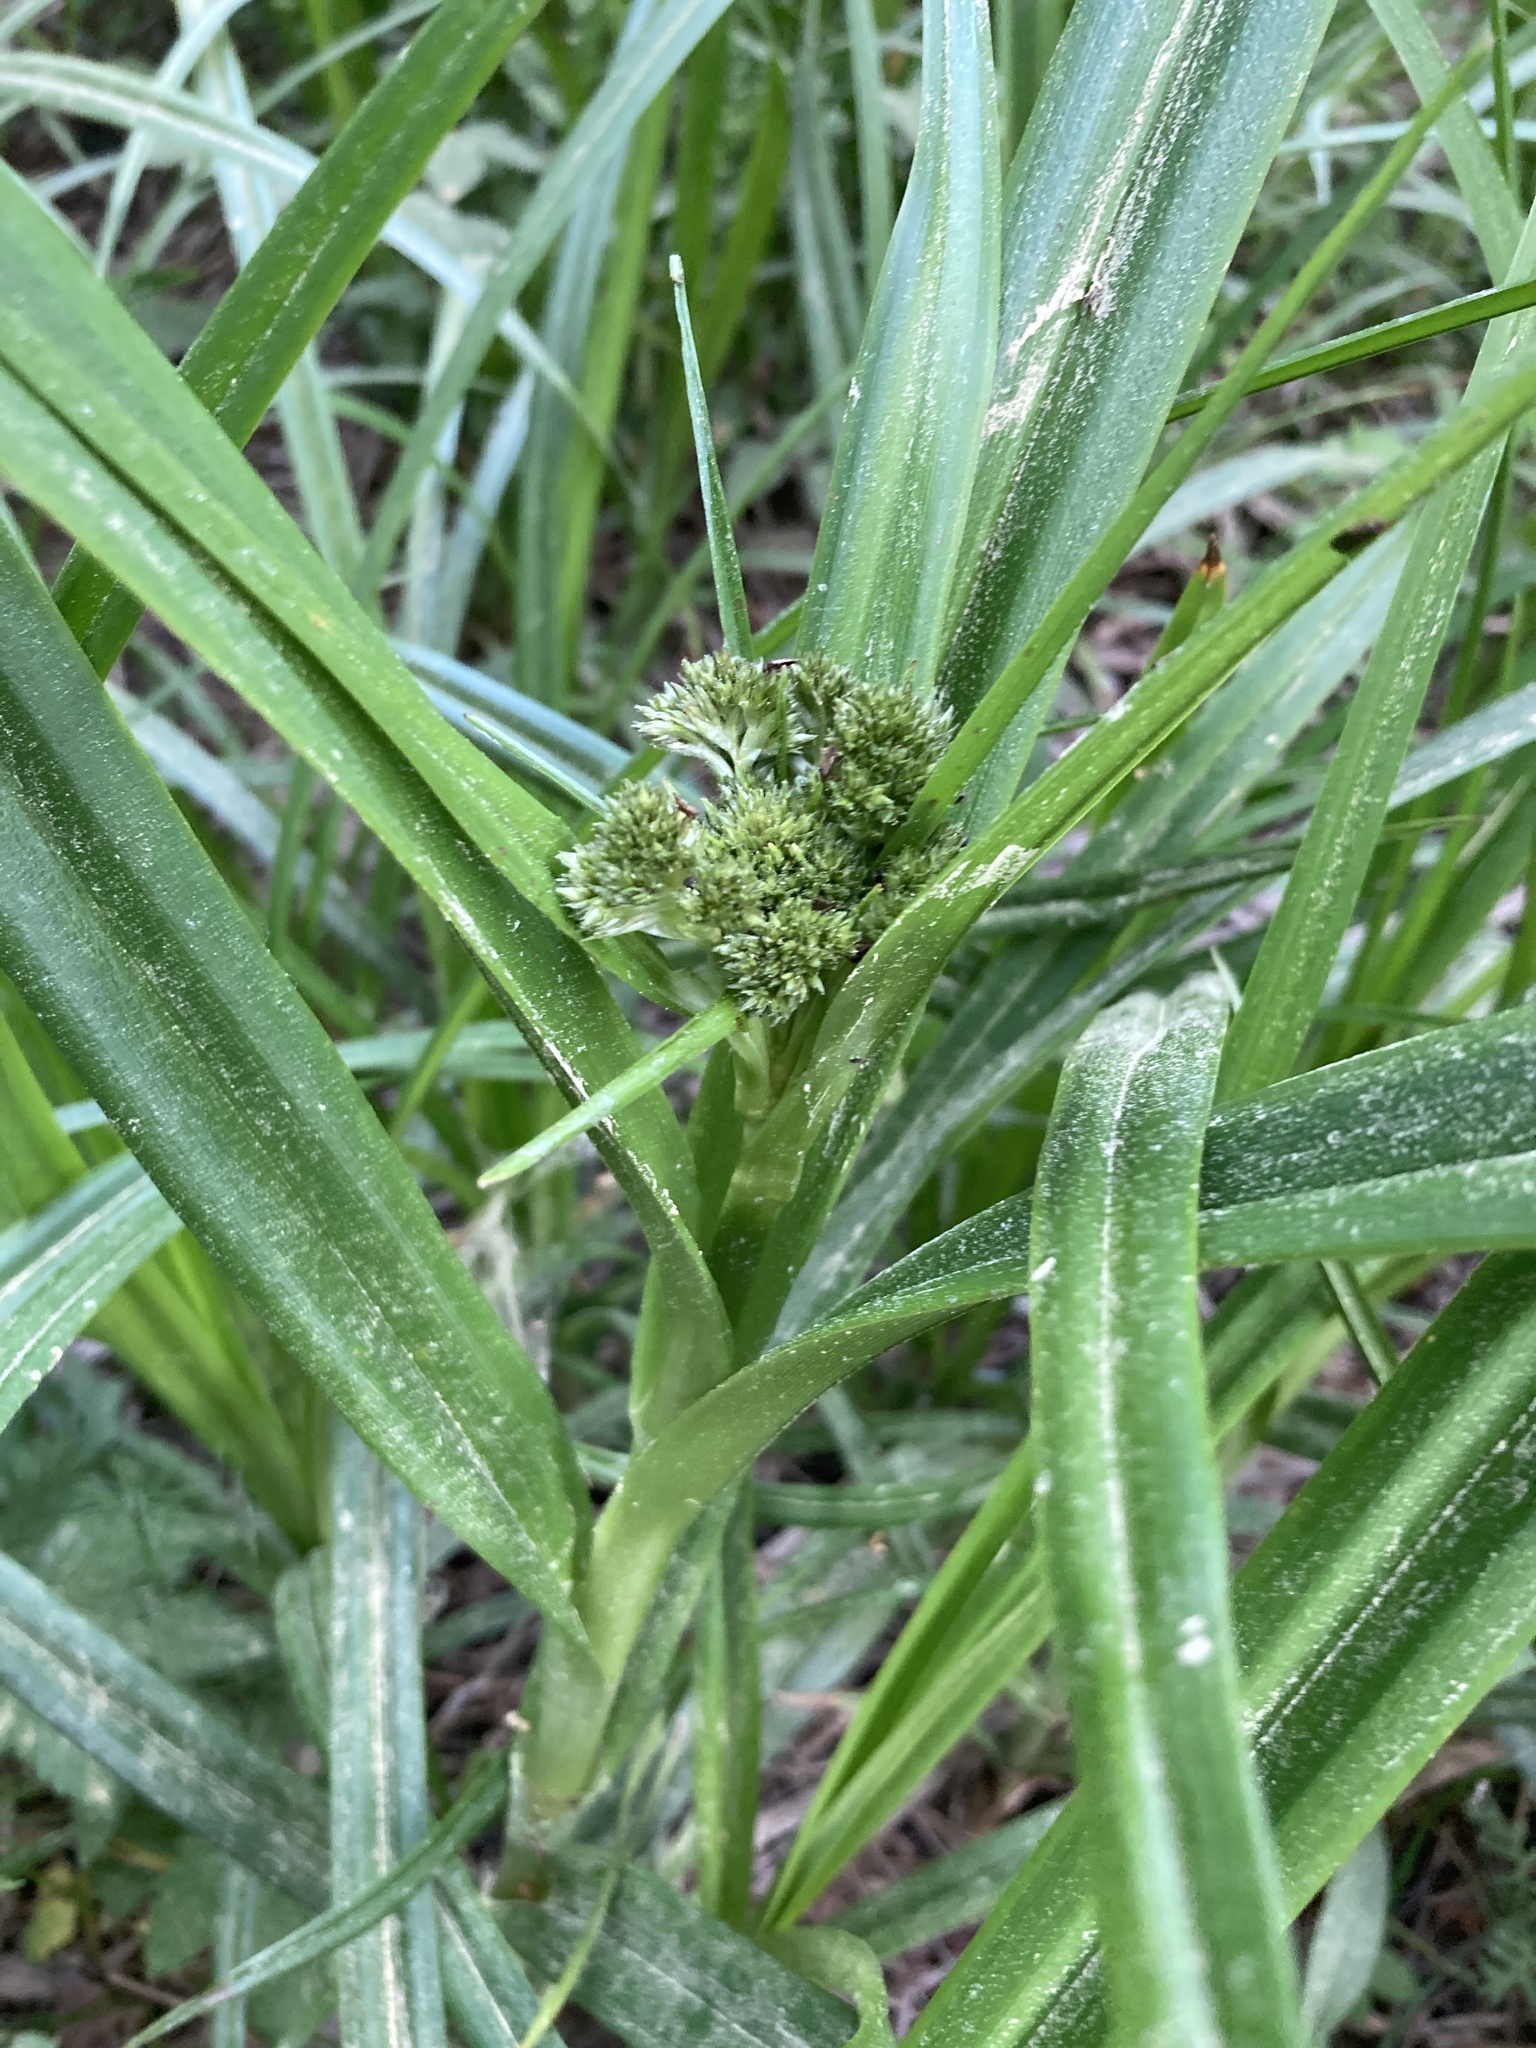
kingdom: Plantae
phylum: Tracheophyta
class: Liliopsida
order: Poales
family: Cyperaceae
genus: Scirpus
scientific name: Scirpus sylvaticus
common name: Wood club-rush
